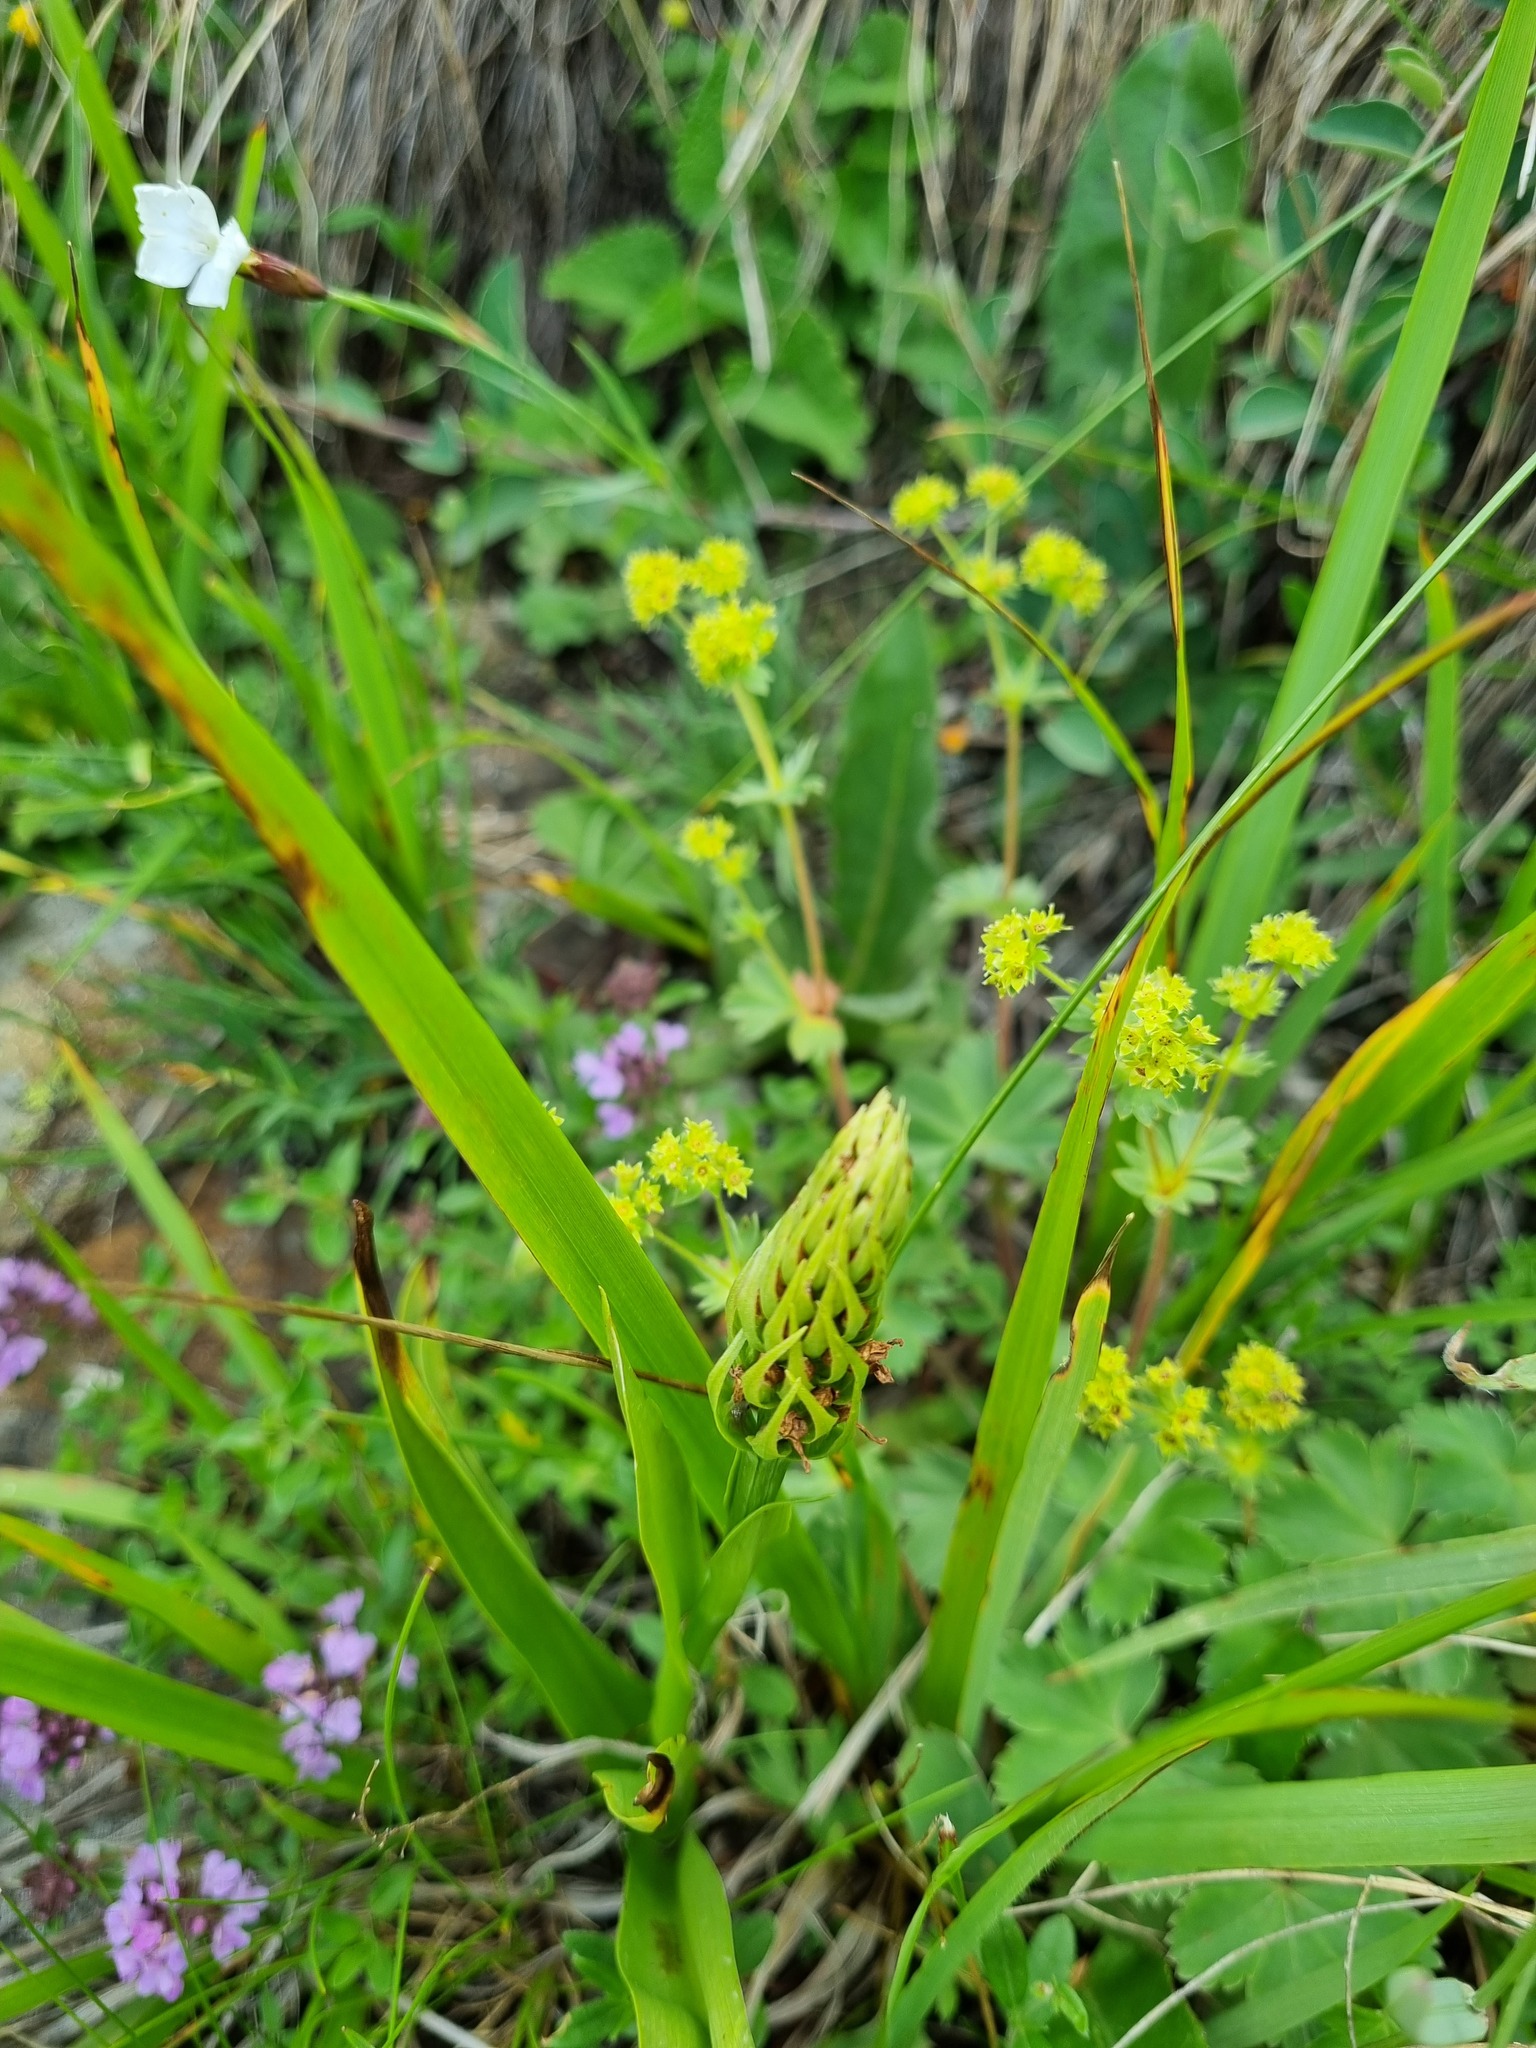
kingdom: Plantae
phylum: Tracheophyta
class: Liliopsida
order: Asparagales
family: Orchidaceae
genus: Gymnadenia
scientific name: Gymnadenia conopsea
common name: Fragrant orchid
